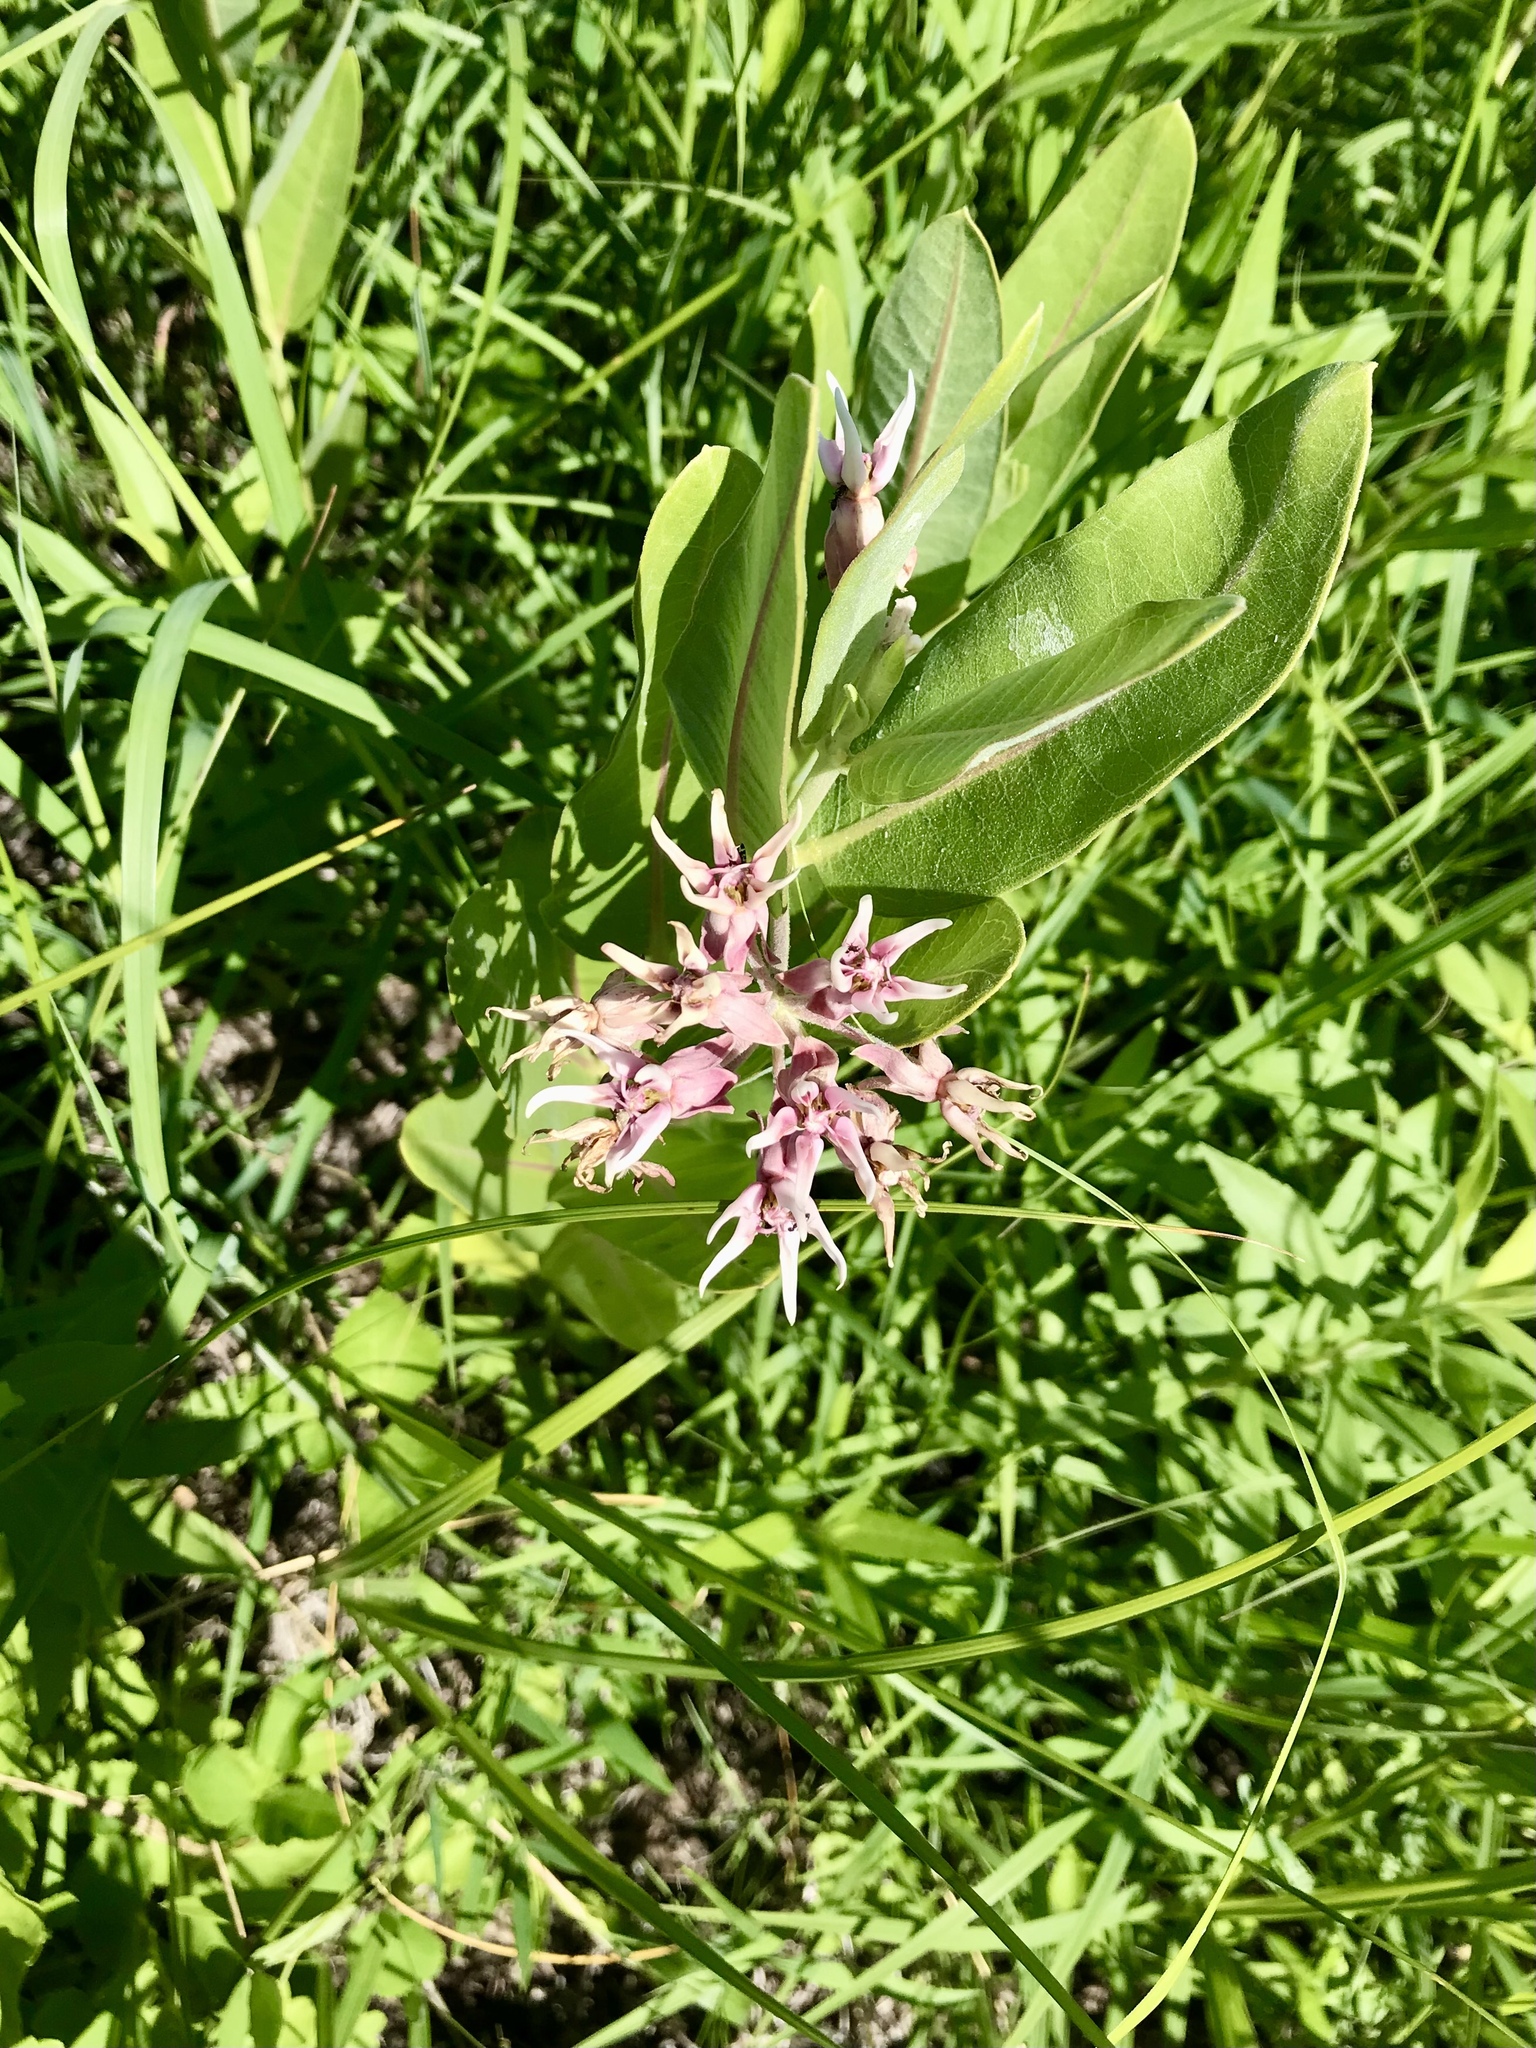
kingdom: Plantae
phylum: Tracheophyta
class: Magnoliopsida
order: Gentianales
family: Apocynaceae
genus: Asclepias
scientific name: Asclepias speciosa
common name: Showy milkweed
